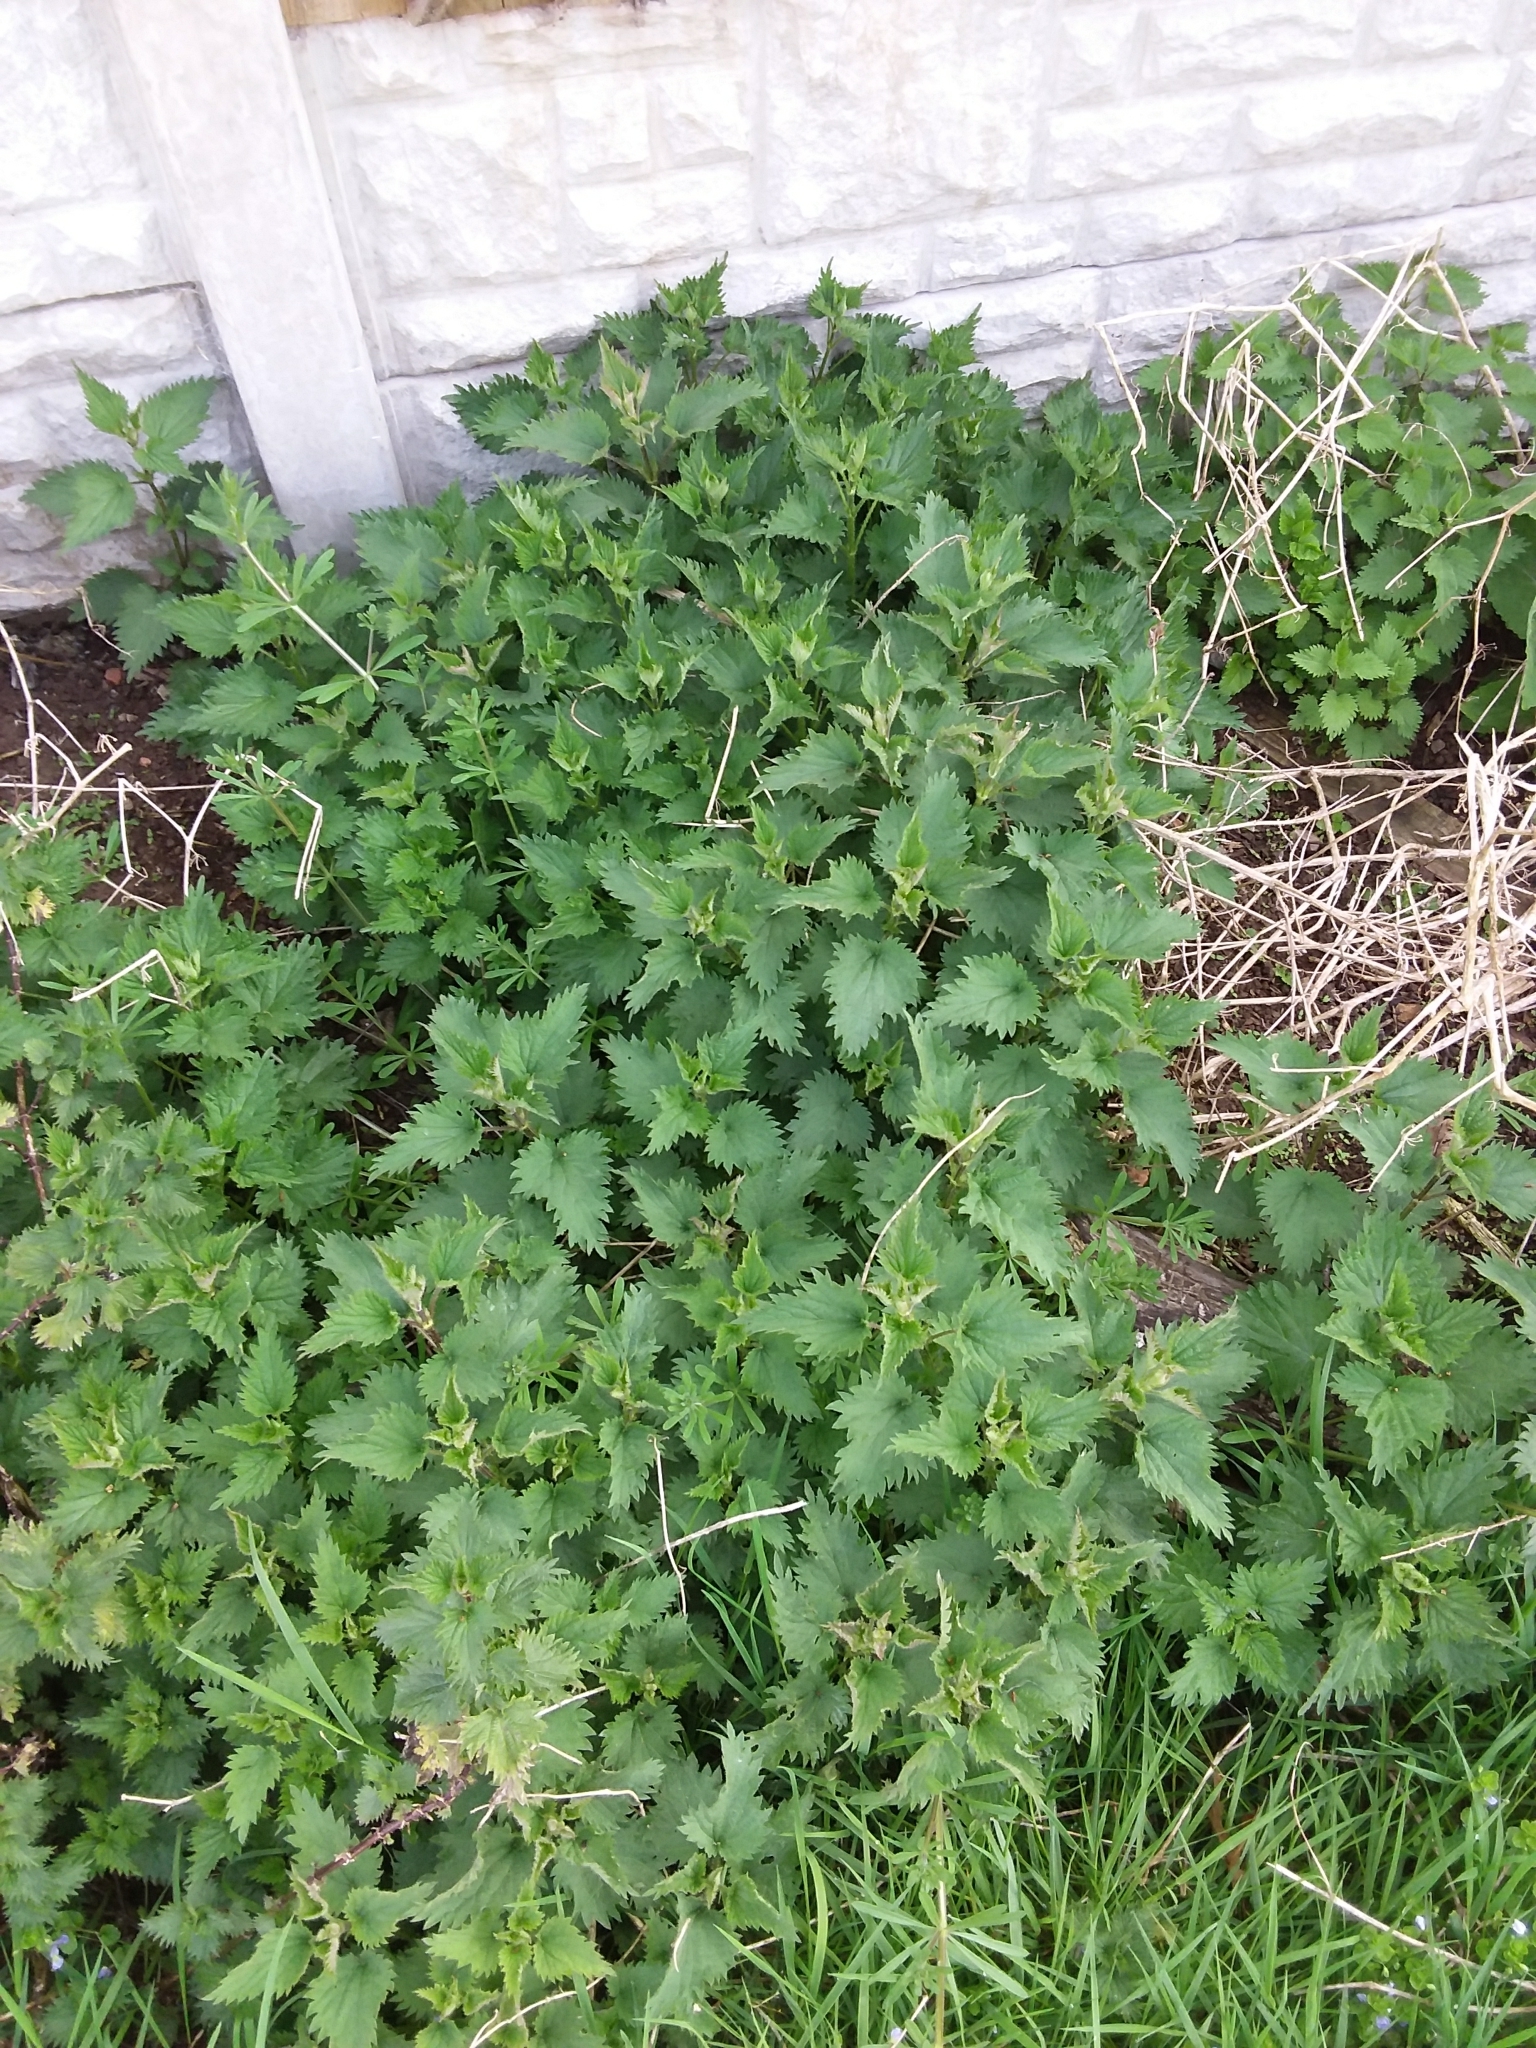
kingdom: Plantae
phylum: Tracheophyta
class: Magnoliopsida
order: Rosales
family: Urticaceae
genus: Urtica
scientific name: Urtica dioica
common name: Common nettle
